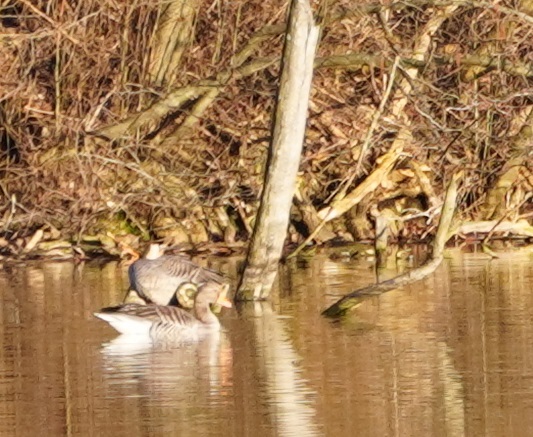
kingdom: Animalia
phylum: Chordata
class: Aves
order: Anseriformes
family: Anatidae
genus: Anser
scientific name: Anser anser
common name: Greylag goose
